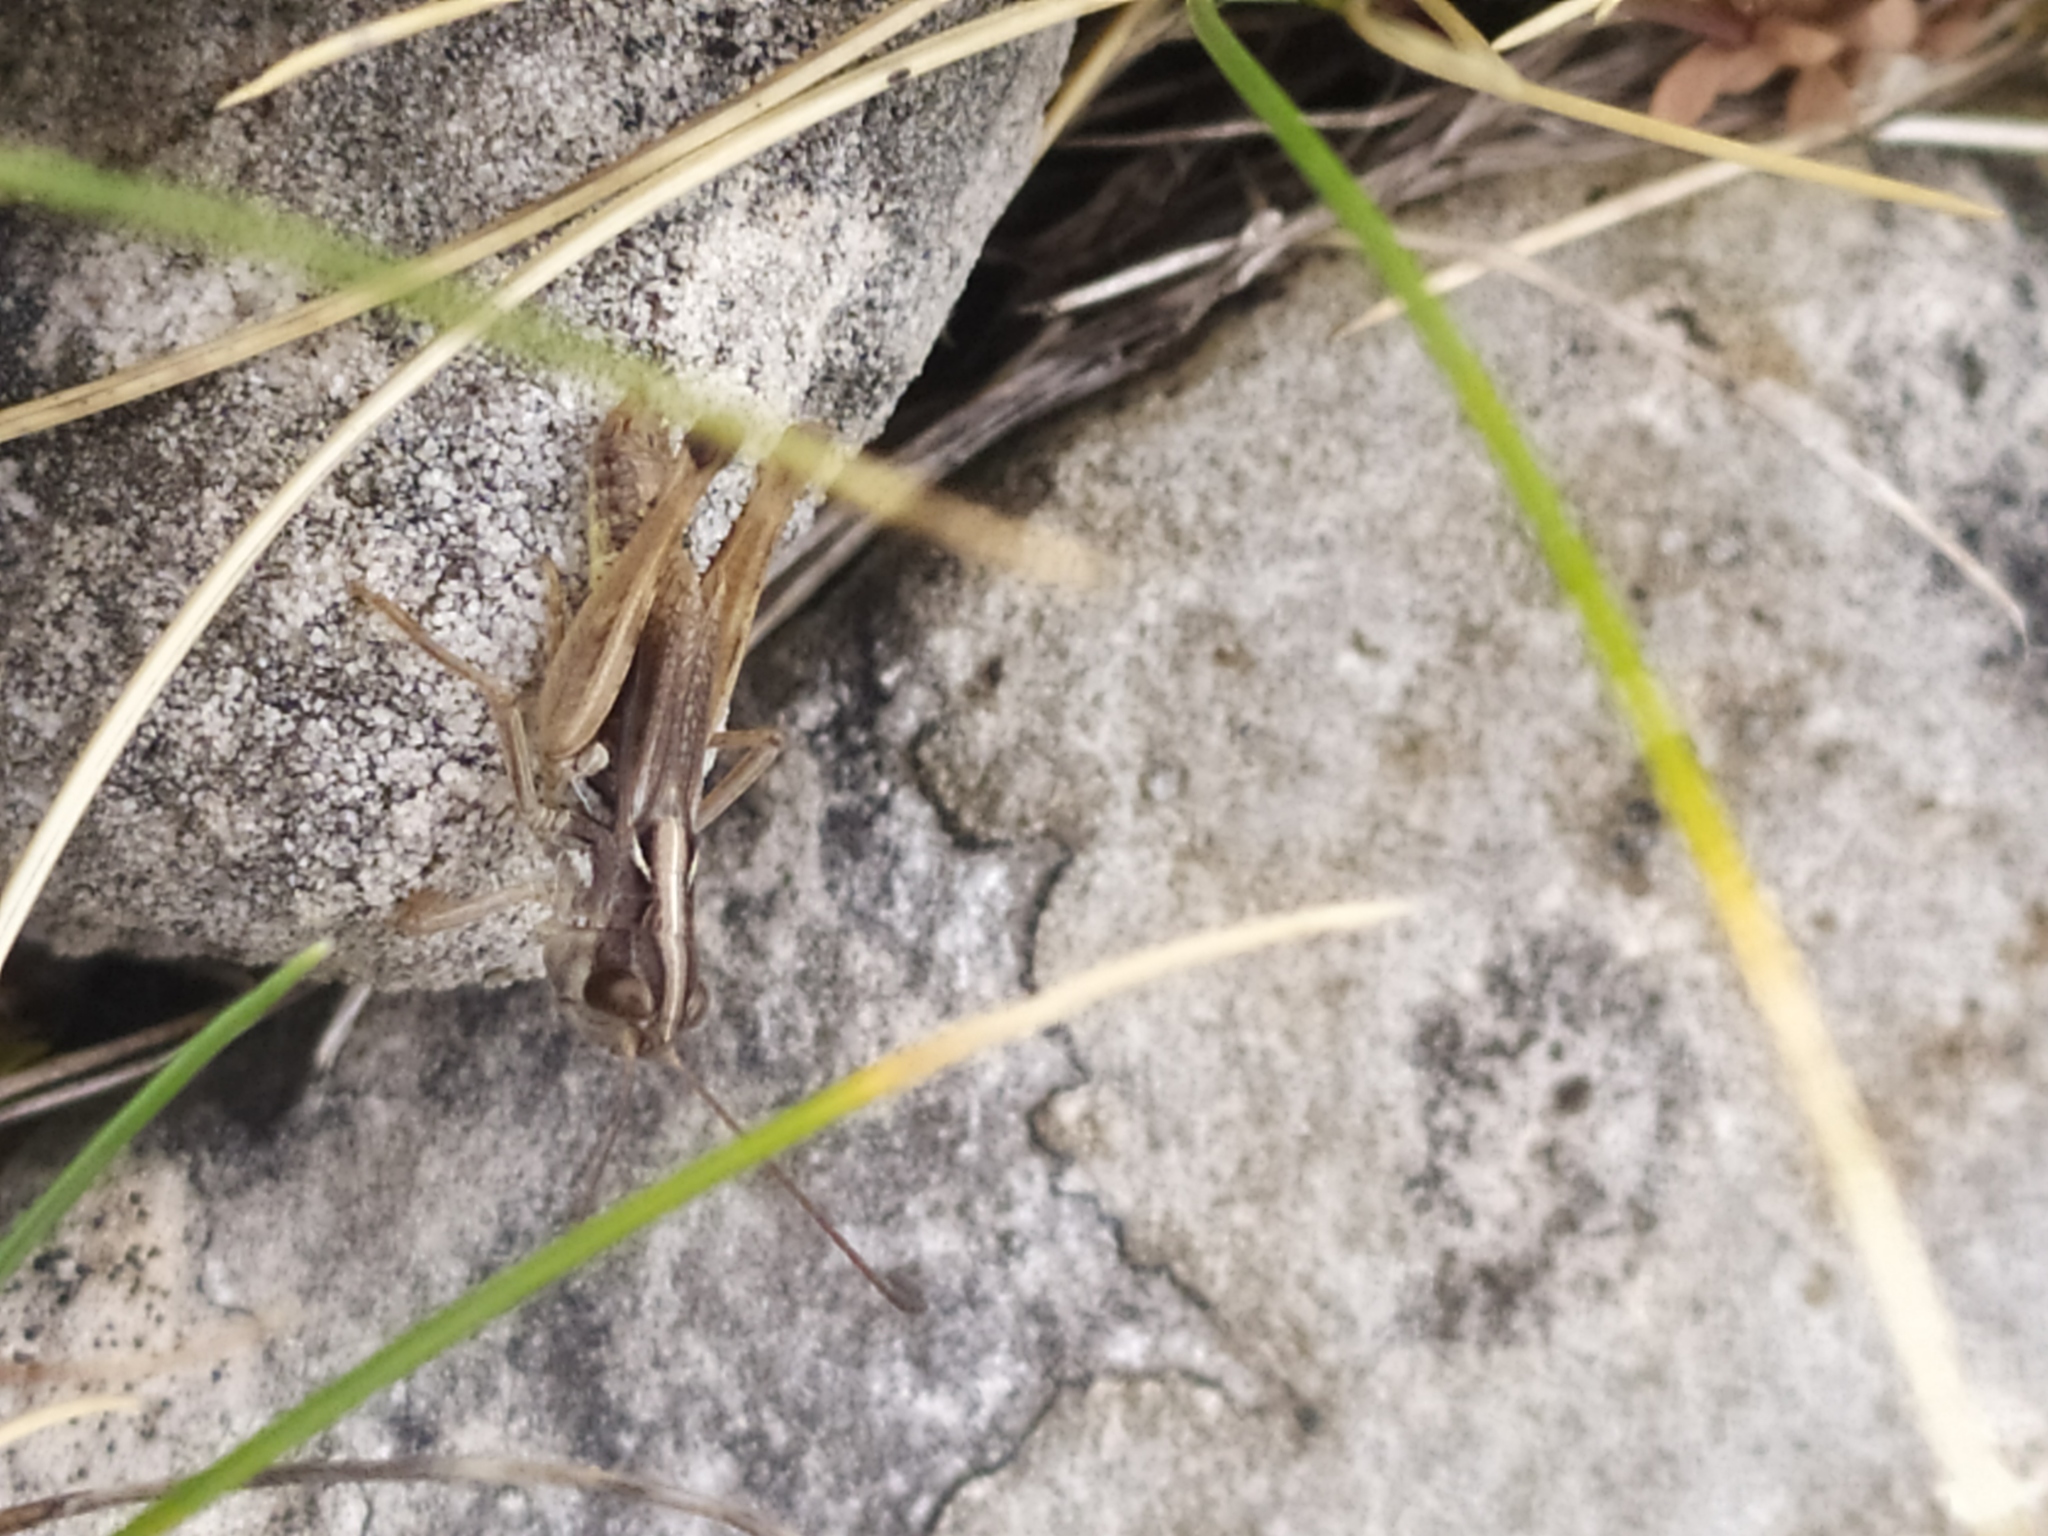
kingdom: Animalia
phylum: Arthropoda
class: Insecta
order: Orthoptera
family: Acrididae
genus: Rammeihippus
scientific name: Rammeihippus dinaricus
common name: Dinarian grasshopper
